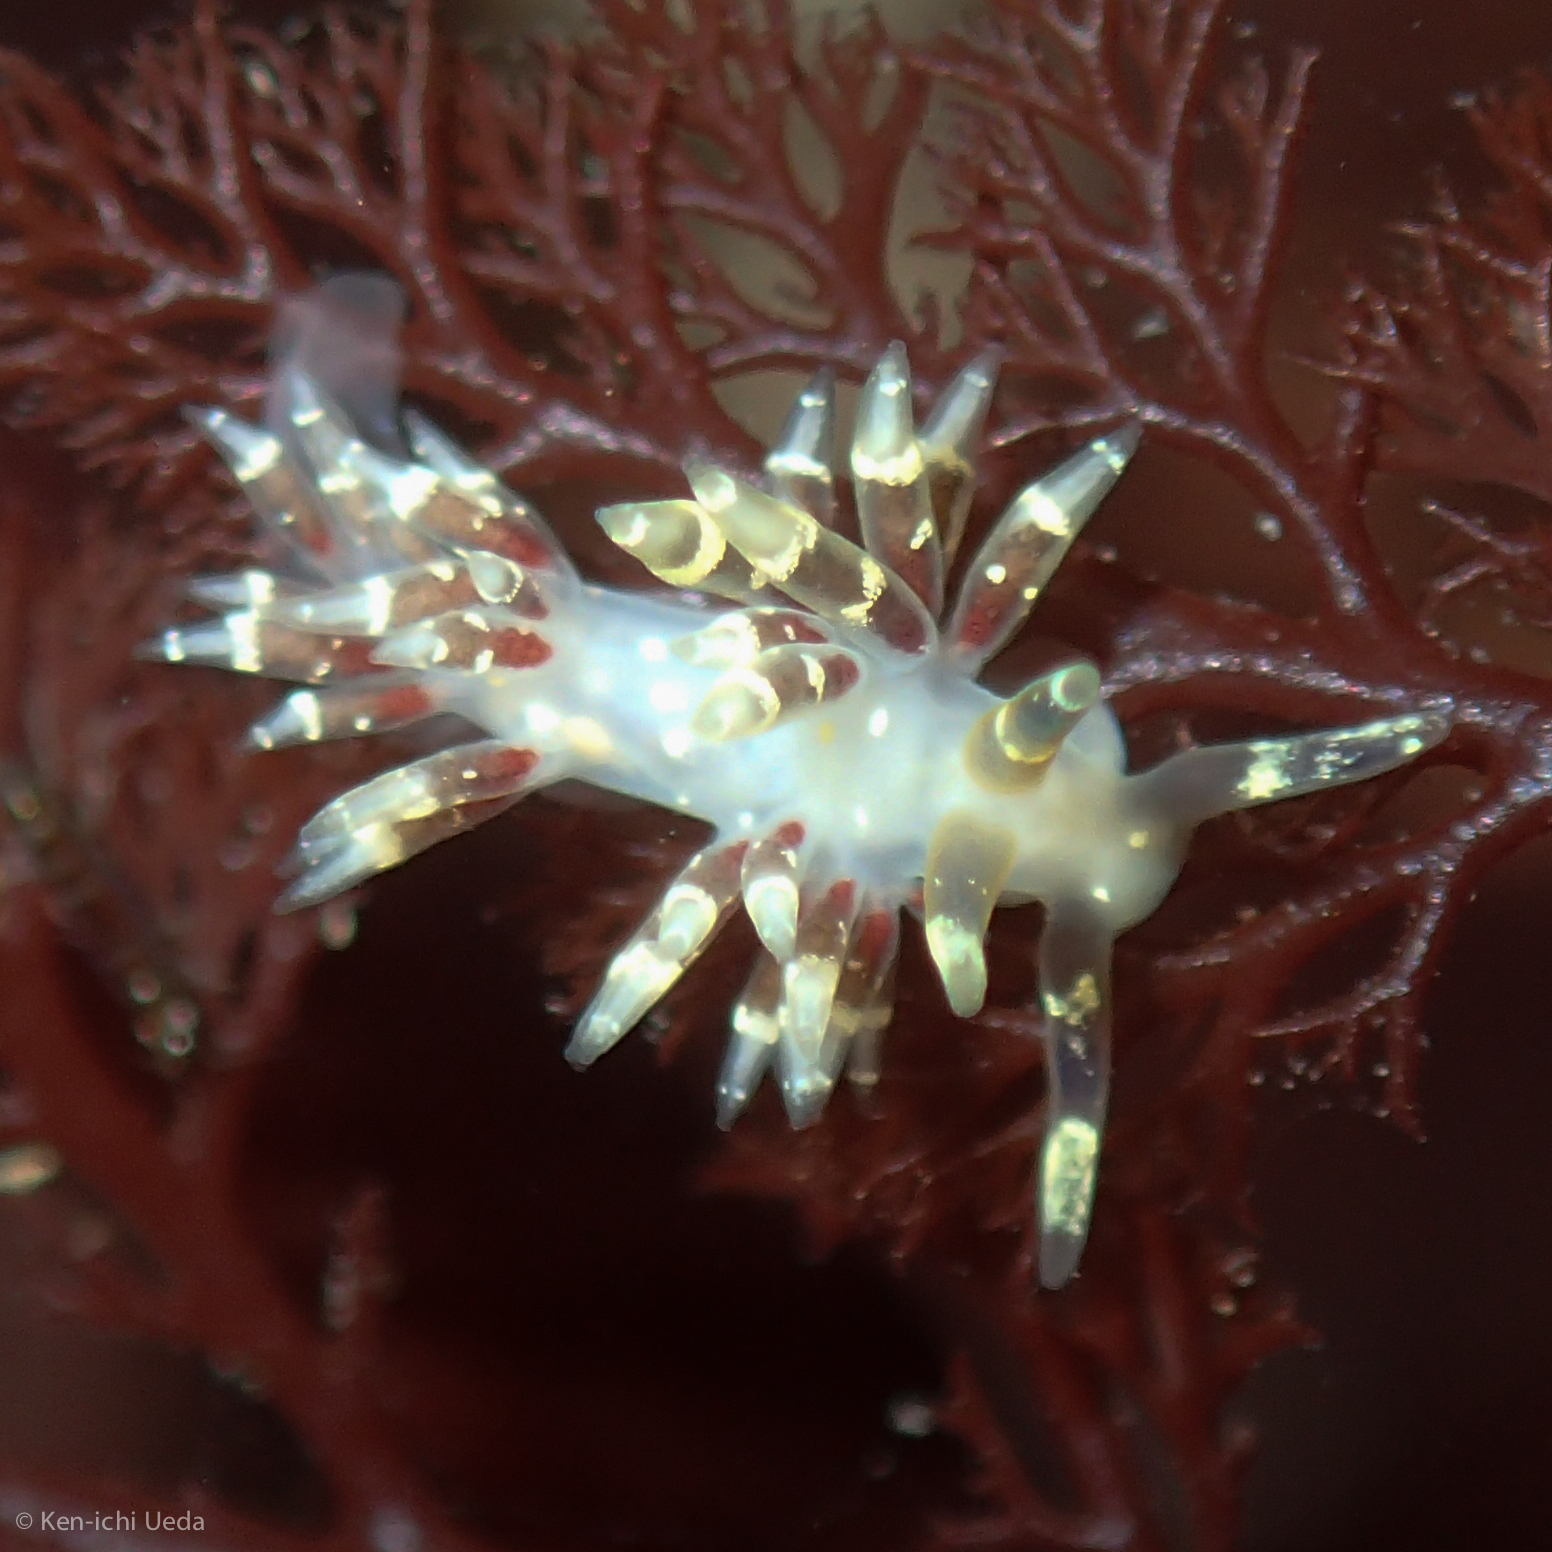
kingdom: Animalia
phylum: Mollusca
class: Gastropoda
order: Nudibranchia
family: Abronicidae
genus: Abronica
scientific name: Abronica abronia
